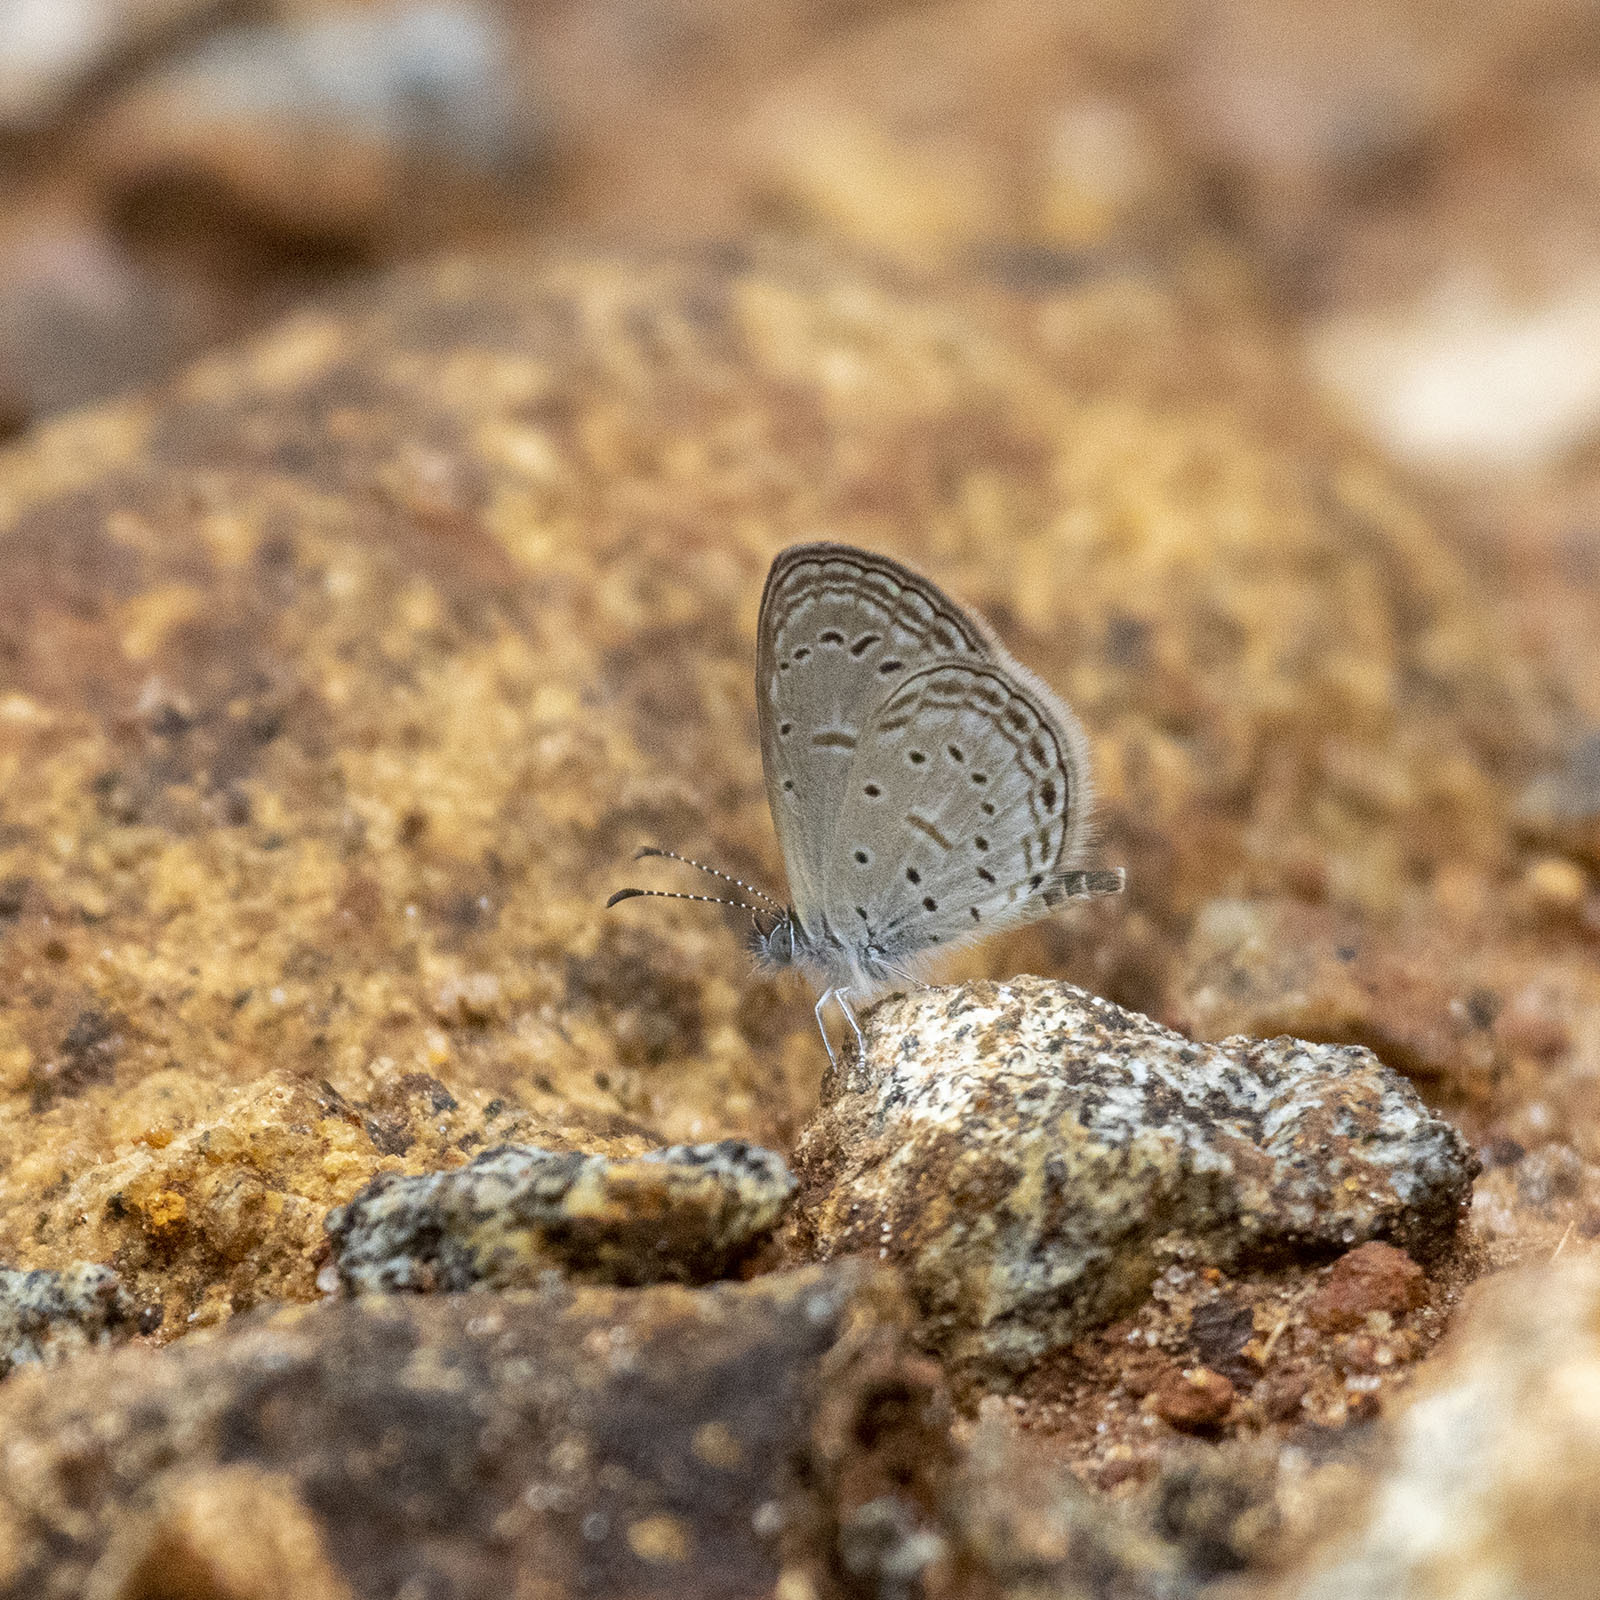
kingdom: Animalia
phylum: Arthropoda
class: Insecta
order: Lepidoptera
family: Lycaenidae
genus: Zizula
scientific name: Zizula hylax
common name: Gaika blue
